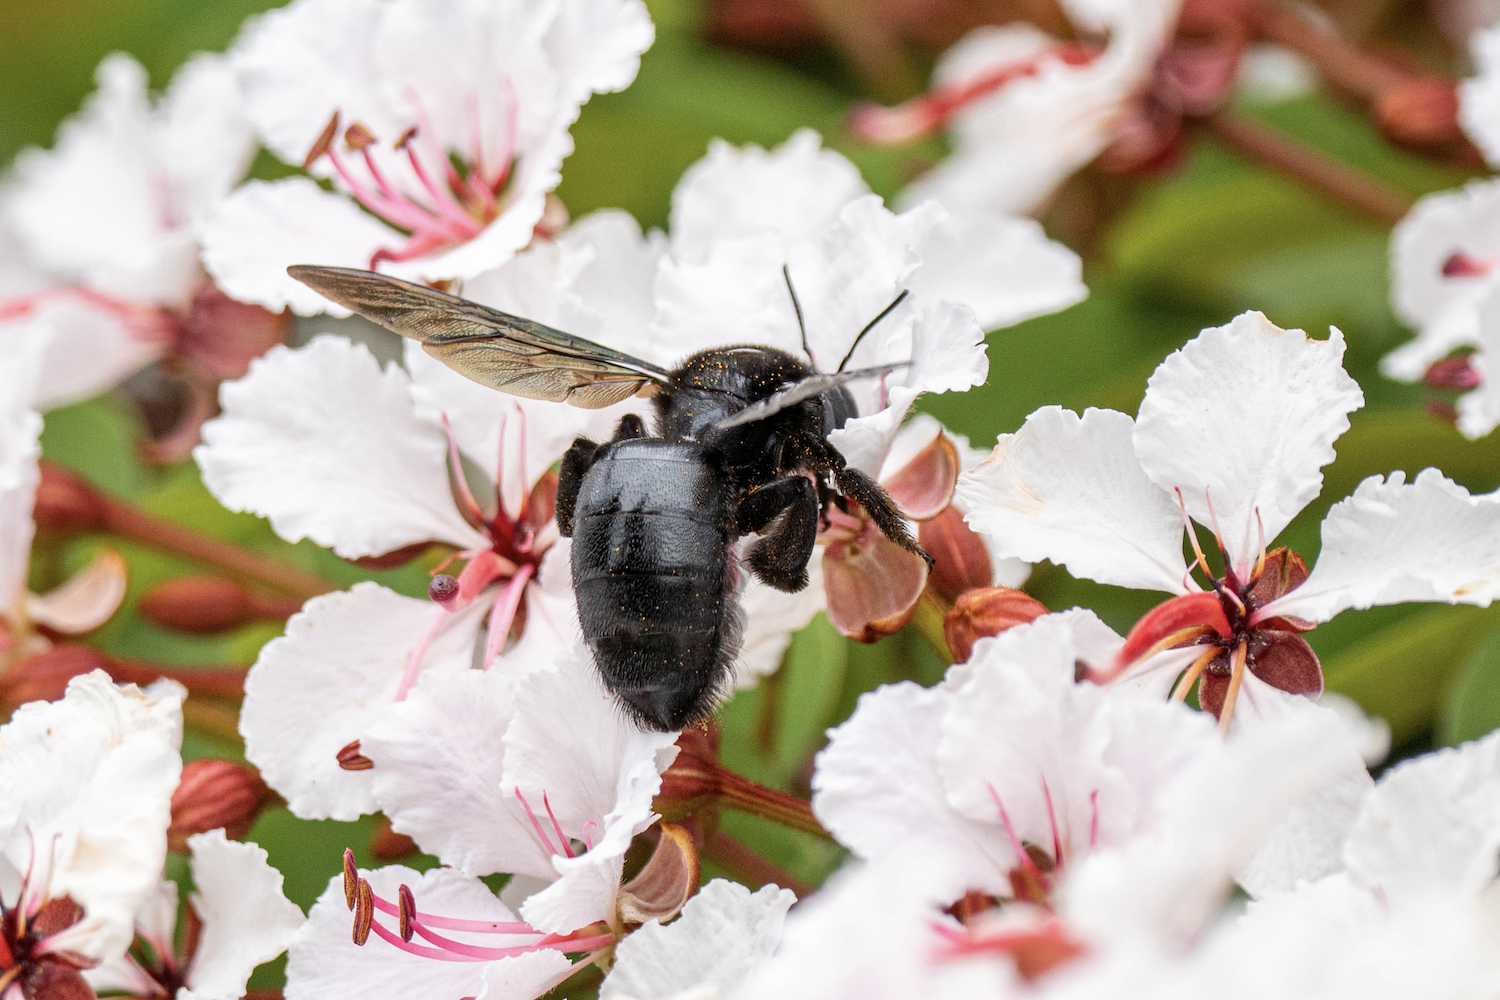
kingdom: Animalia
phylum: Arthropoda
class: Insecta
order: Hymenoptera
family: Apidae
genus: Xylocopa
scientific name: Xylocopa tranquebarorum
